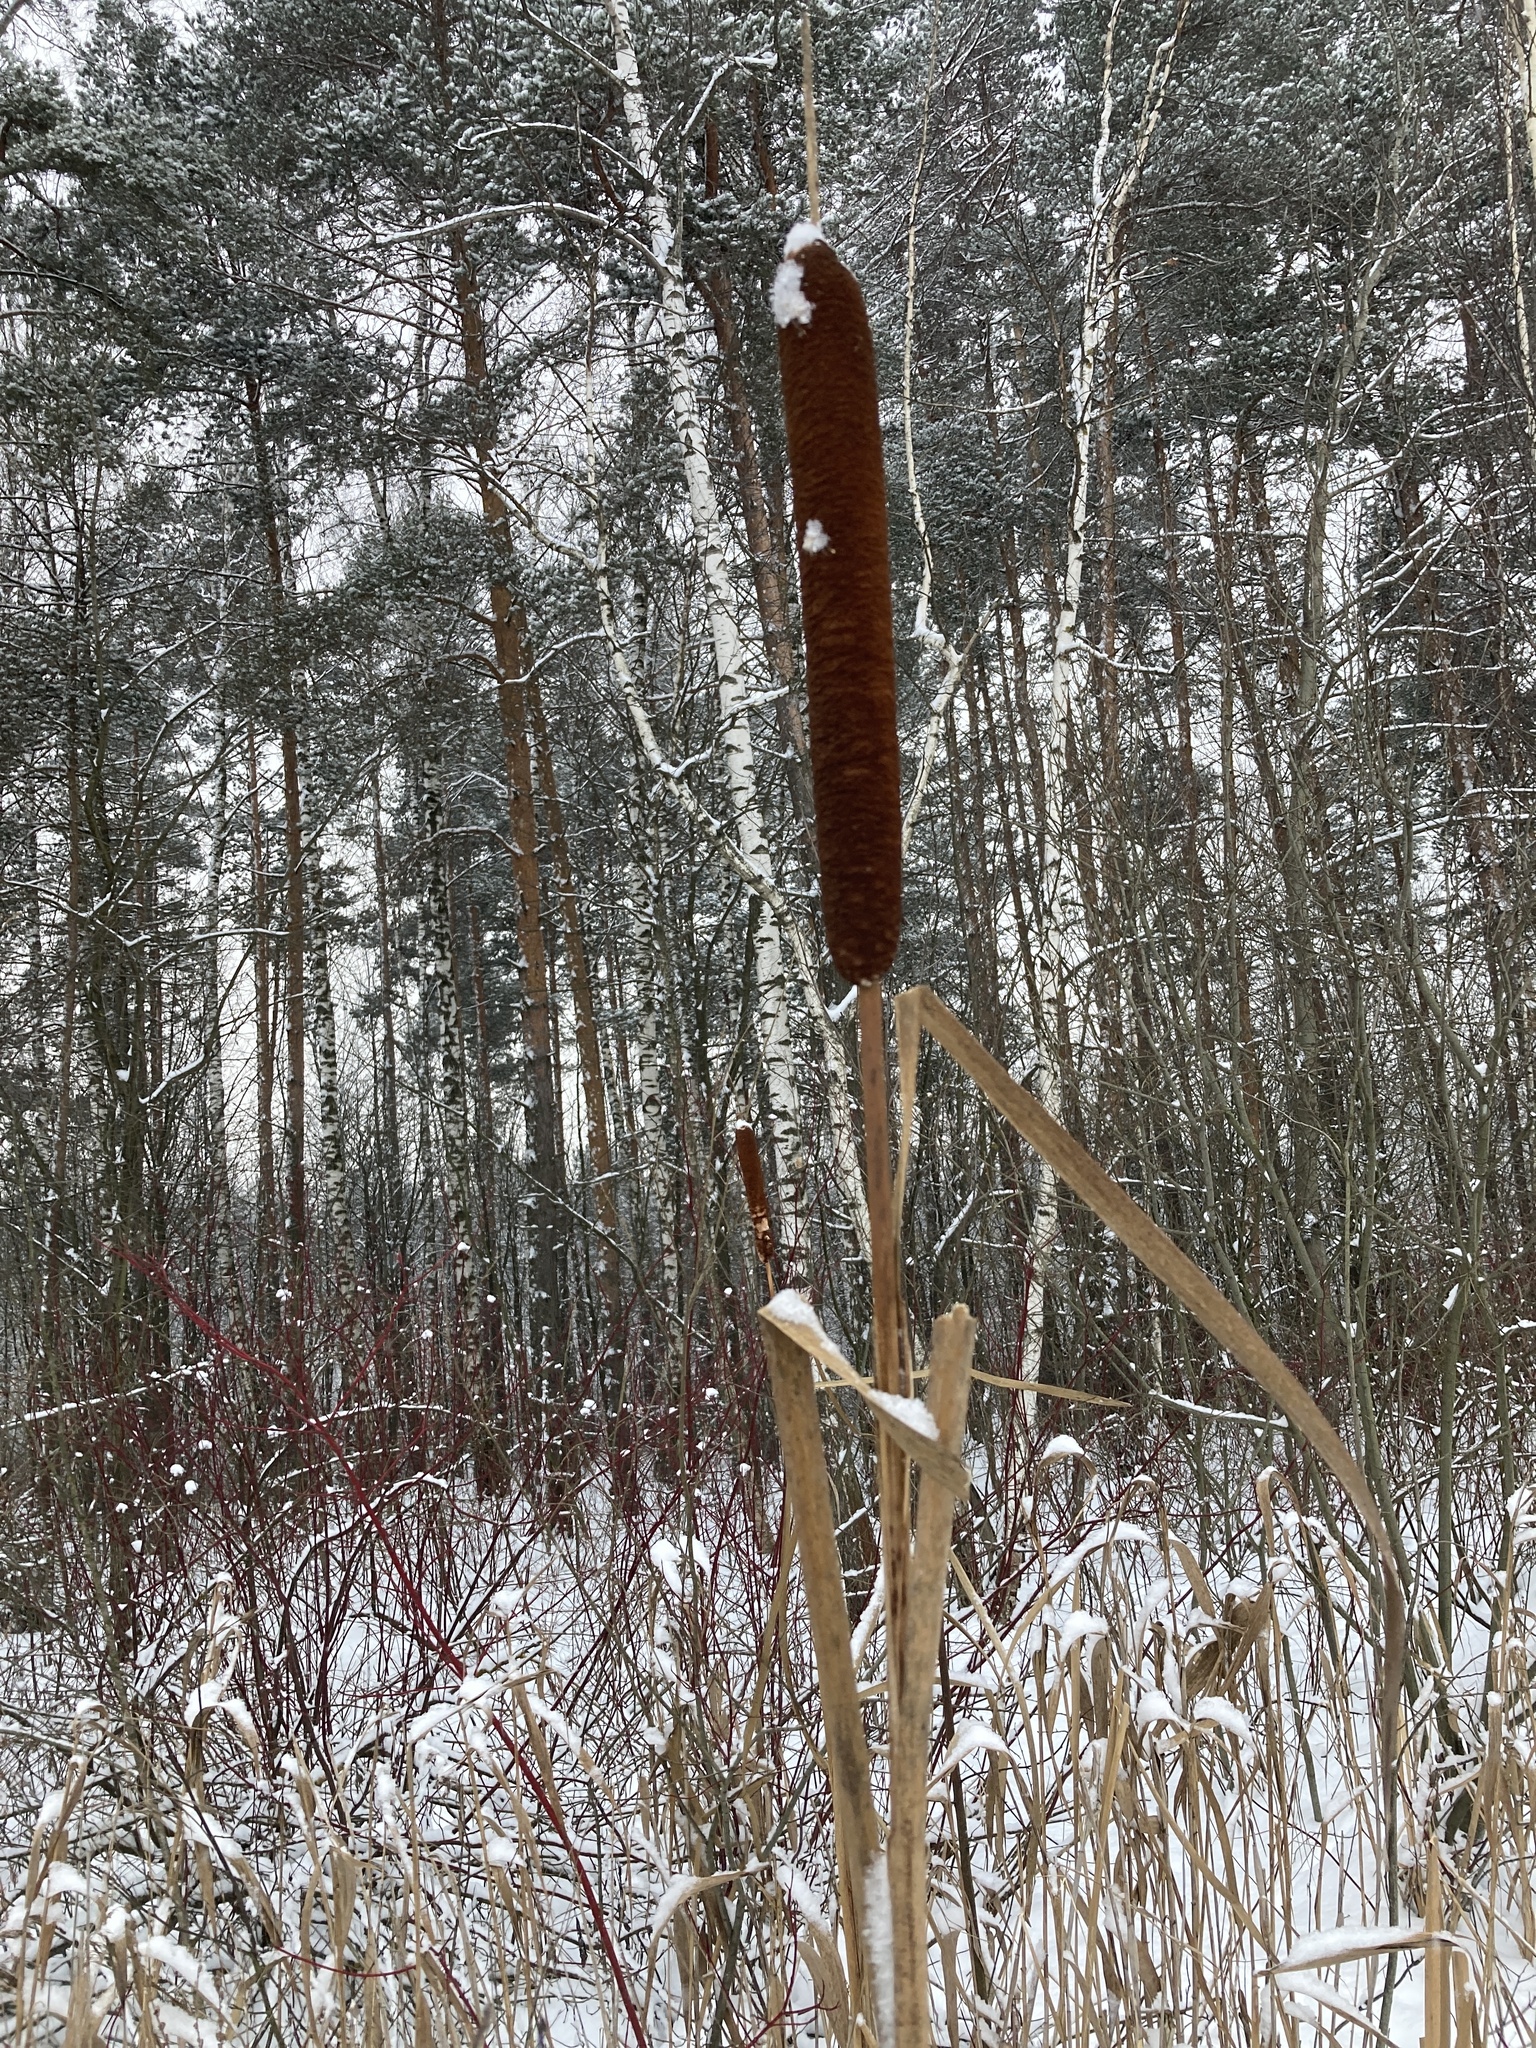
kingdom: Plantae
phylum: Tracheophyta
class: Liliopsida
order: Poales
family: Typhaceae
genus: Typha
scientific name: Typha latifolia
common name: Broadleaf cattail
